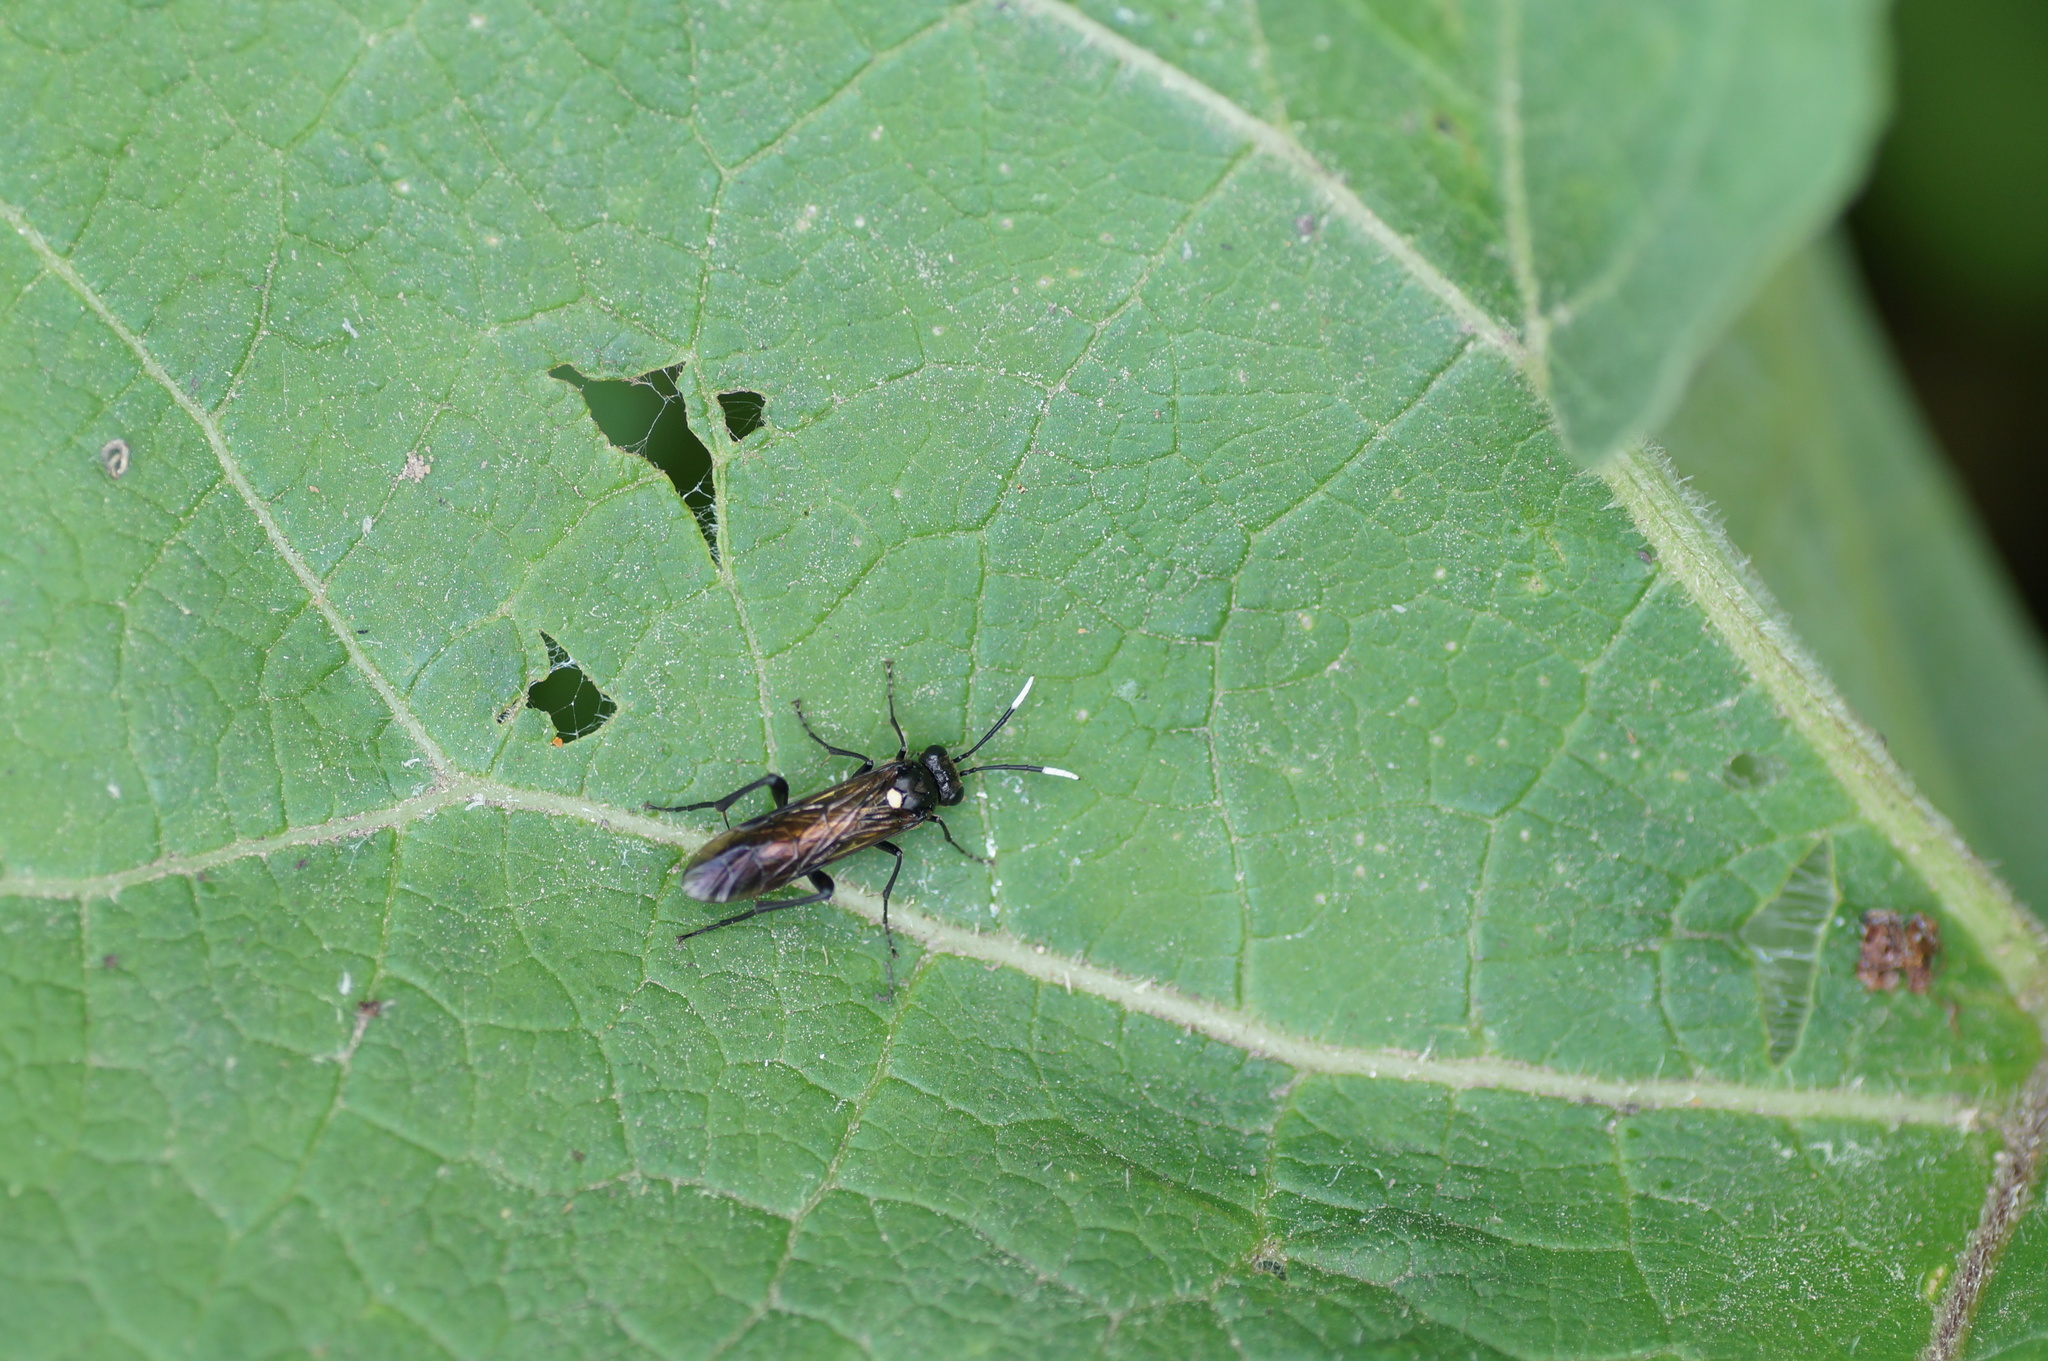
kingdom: Animalia
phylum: Arthropoda
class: Insecta
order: Hymenoptera
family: Tenthredinidae
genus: Macrophya
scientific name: Macrophya infumata
